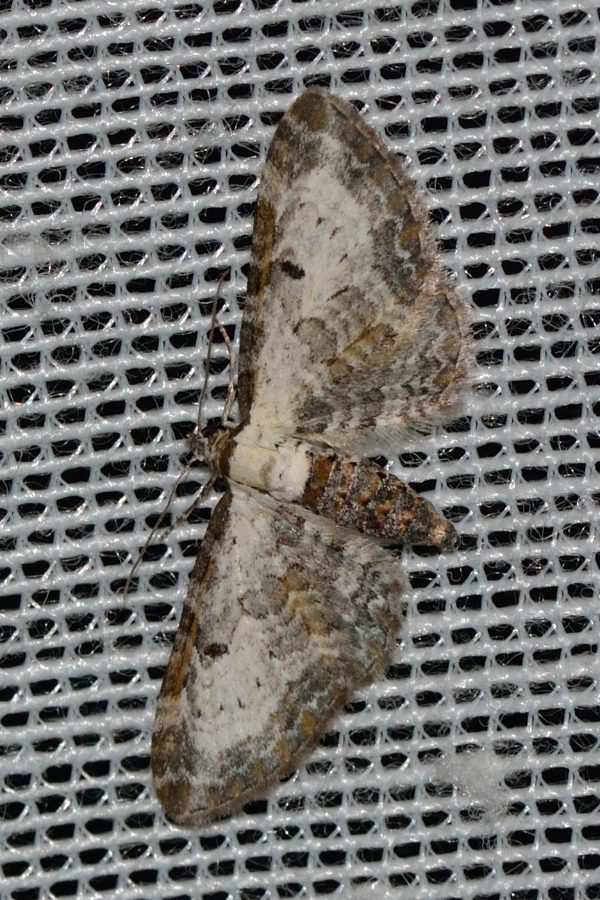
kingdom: Animalia
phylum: Arthropoda
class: Insecta
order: Lepidoptera
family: Geometridae
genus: Eupithecia
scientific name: Eupithecia succenturiata
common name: Bordered pug
